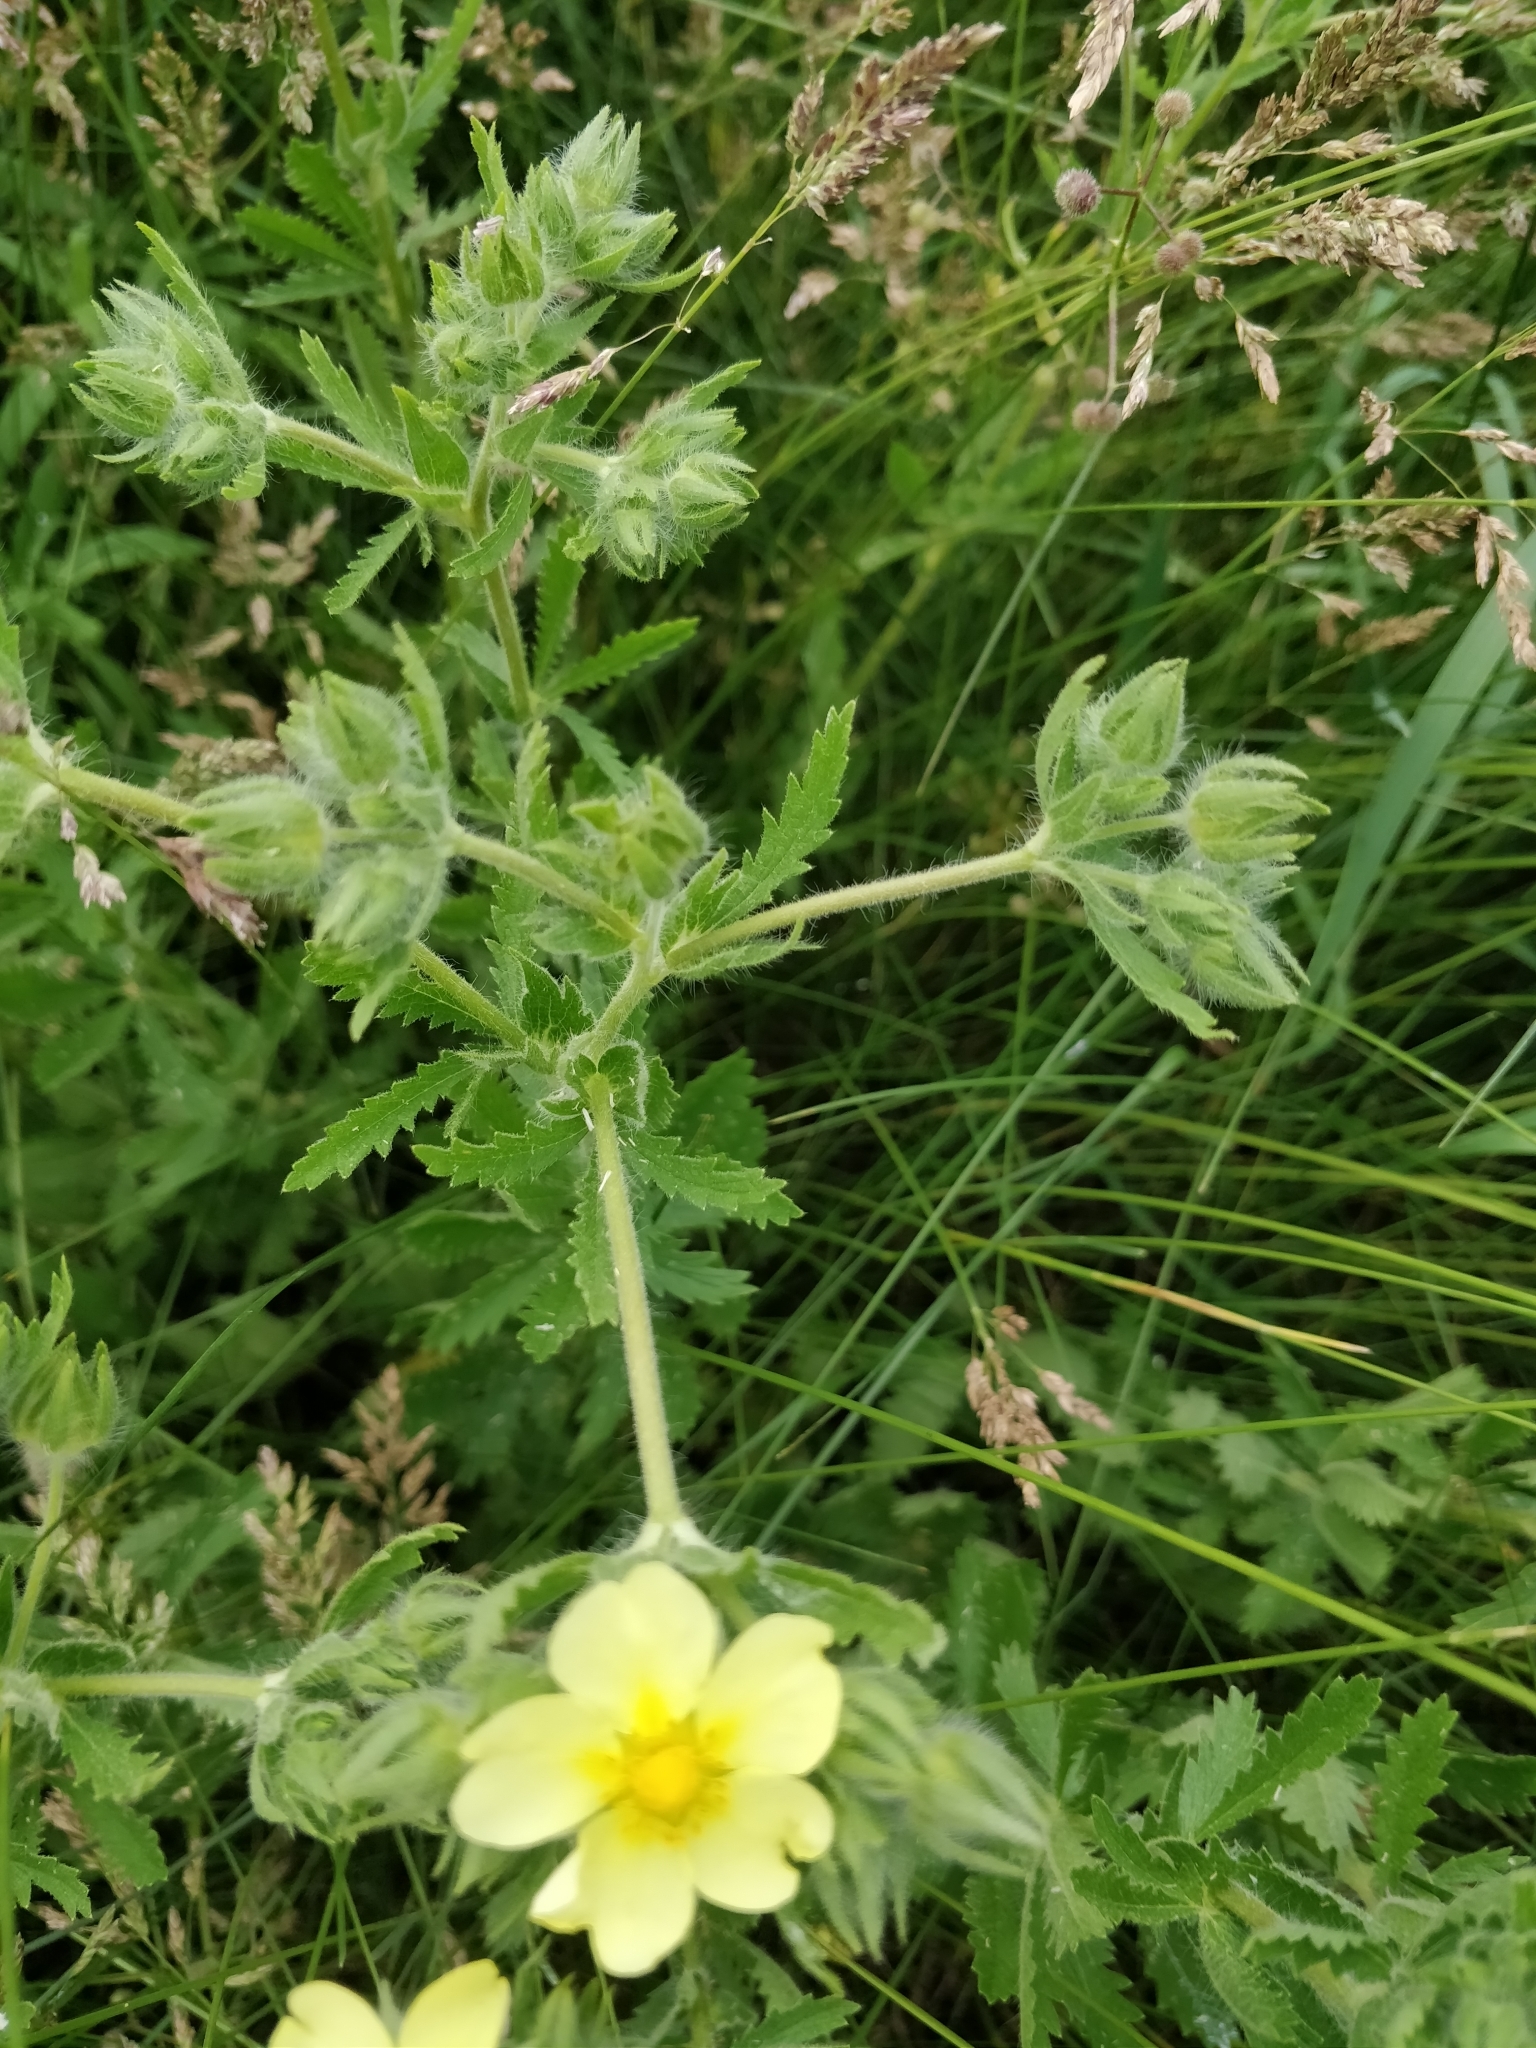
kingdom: Plantae
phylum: Tracheophyta
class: Magnoliopsida
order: Rosales
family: Rosaceae
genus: Potentilla
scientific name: Potentilla recta
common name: Sulphur cinquefoil
